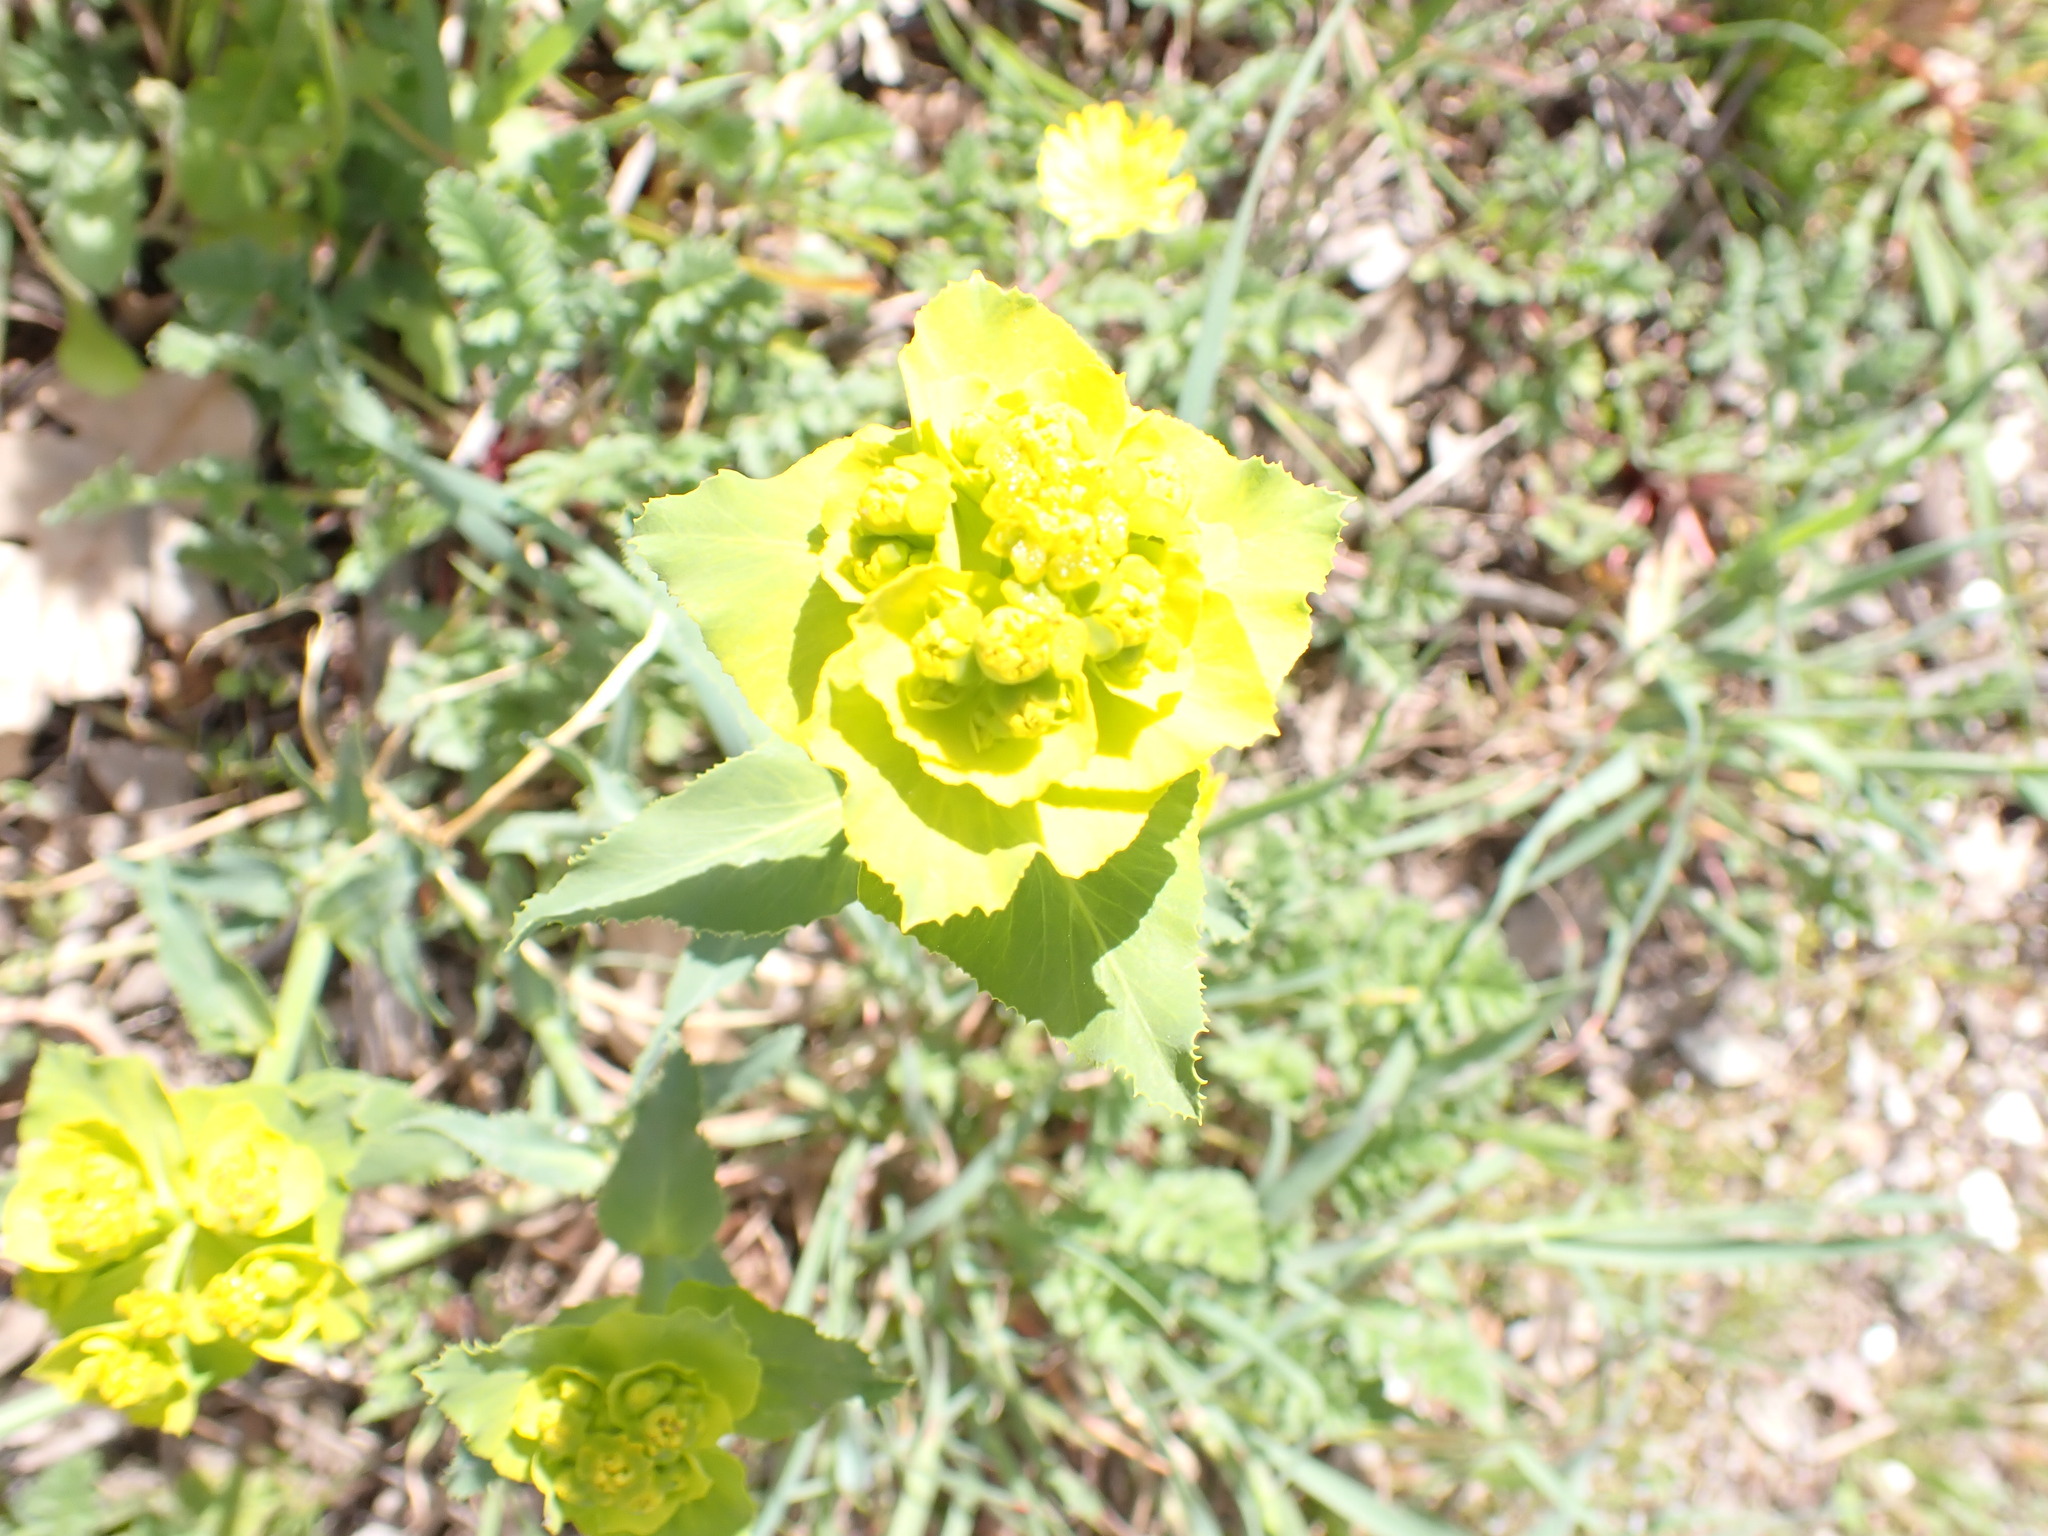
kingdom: Plantae
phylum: Tracheophyta
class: Magnoliopsida
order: Malpighiales
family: Euphorbiaceae
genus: Euphorbia
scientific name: Euphorbia serrata
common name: Serrate spurge
